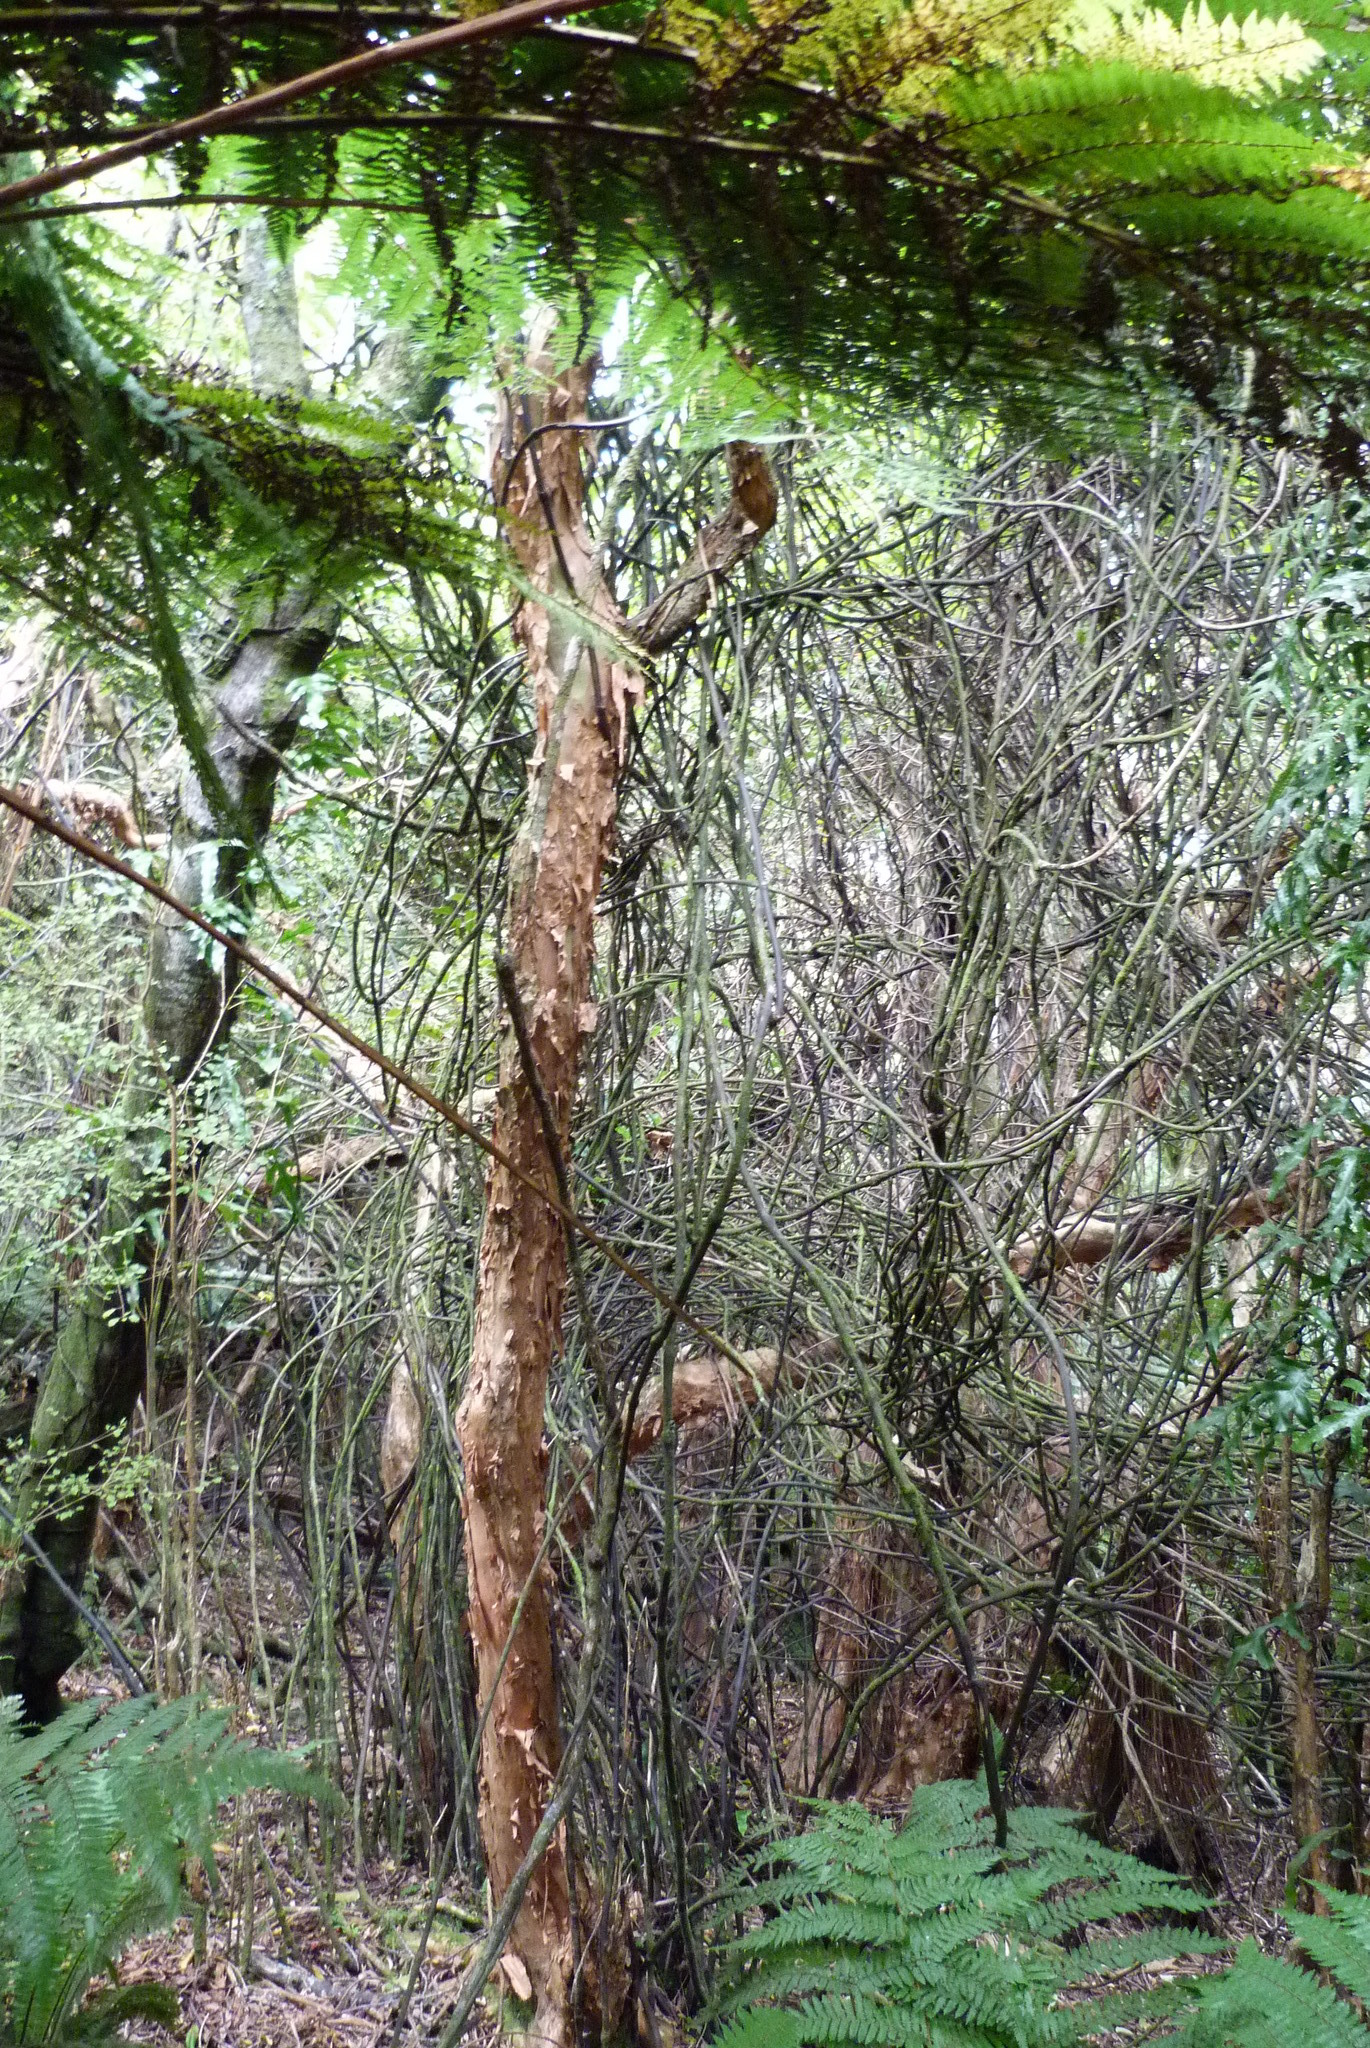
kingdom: Plantae
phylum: Tracheophyta
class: Liliopsida
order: Liliales
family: Ripogonaceae
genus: Ripogonum
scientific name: Ripogonum scandens
